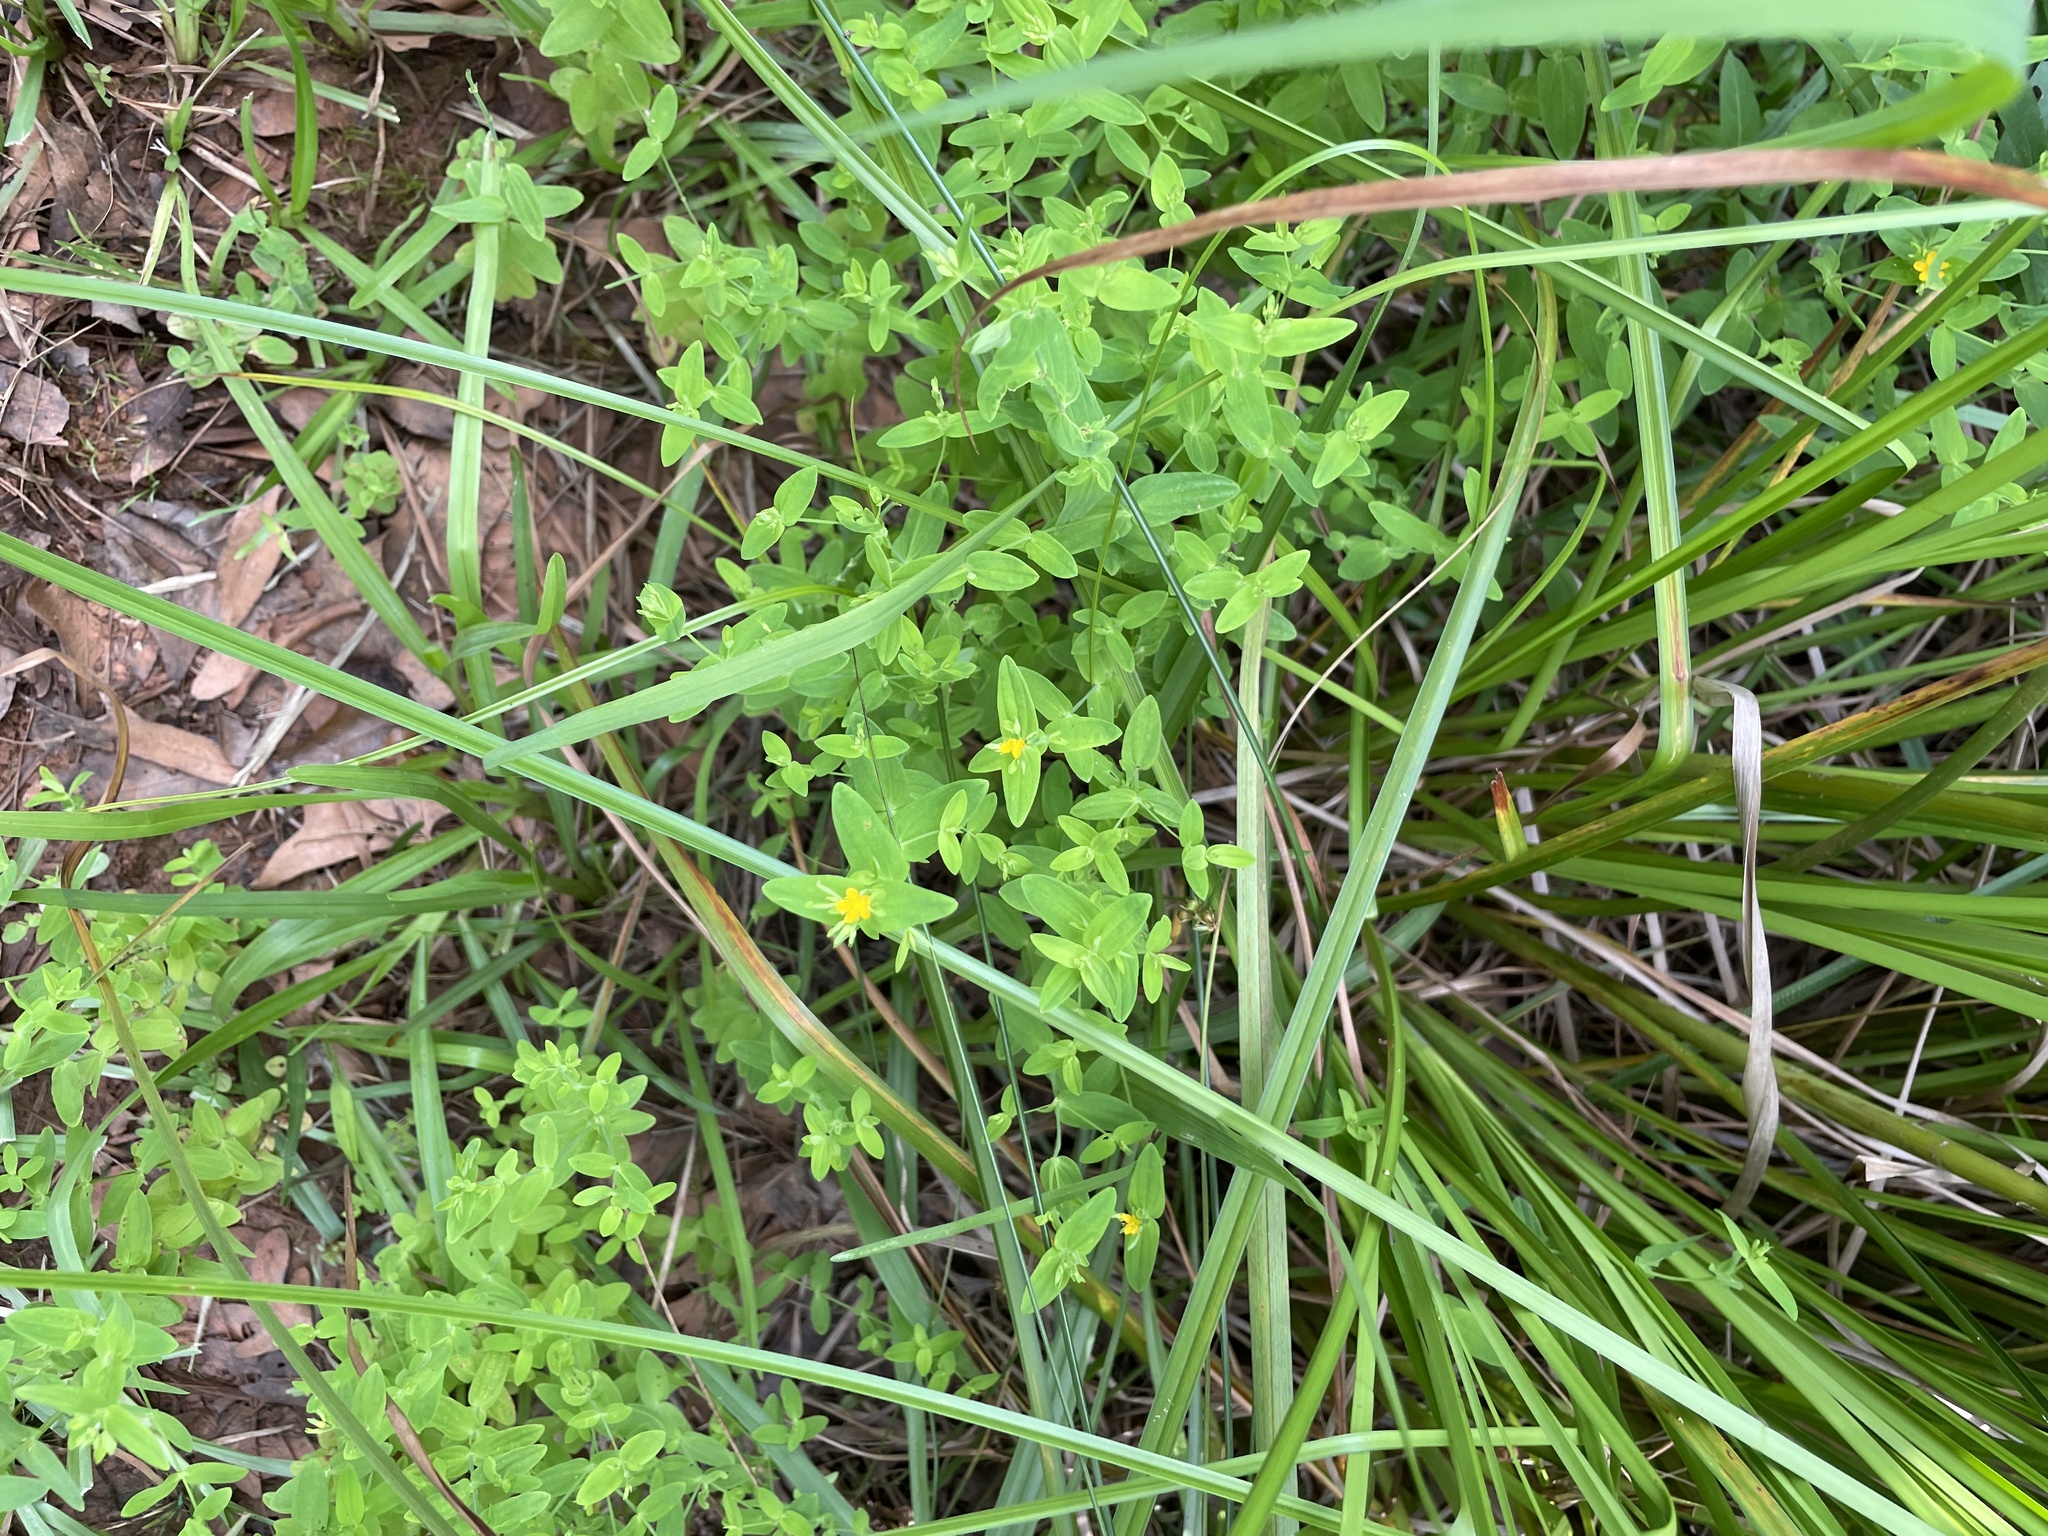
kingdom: Plantae
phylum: Tracheophyta
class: Magnoliopsida
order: Malpighiales
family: Hypericaceae
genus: Hypericum
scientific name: Hypericum mutilum
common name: Dwarf st. john's-wort
